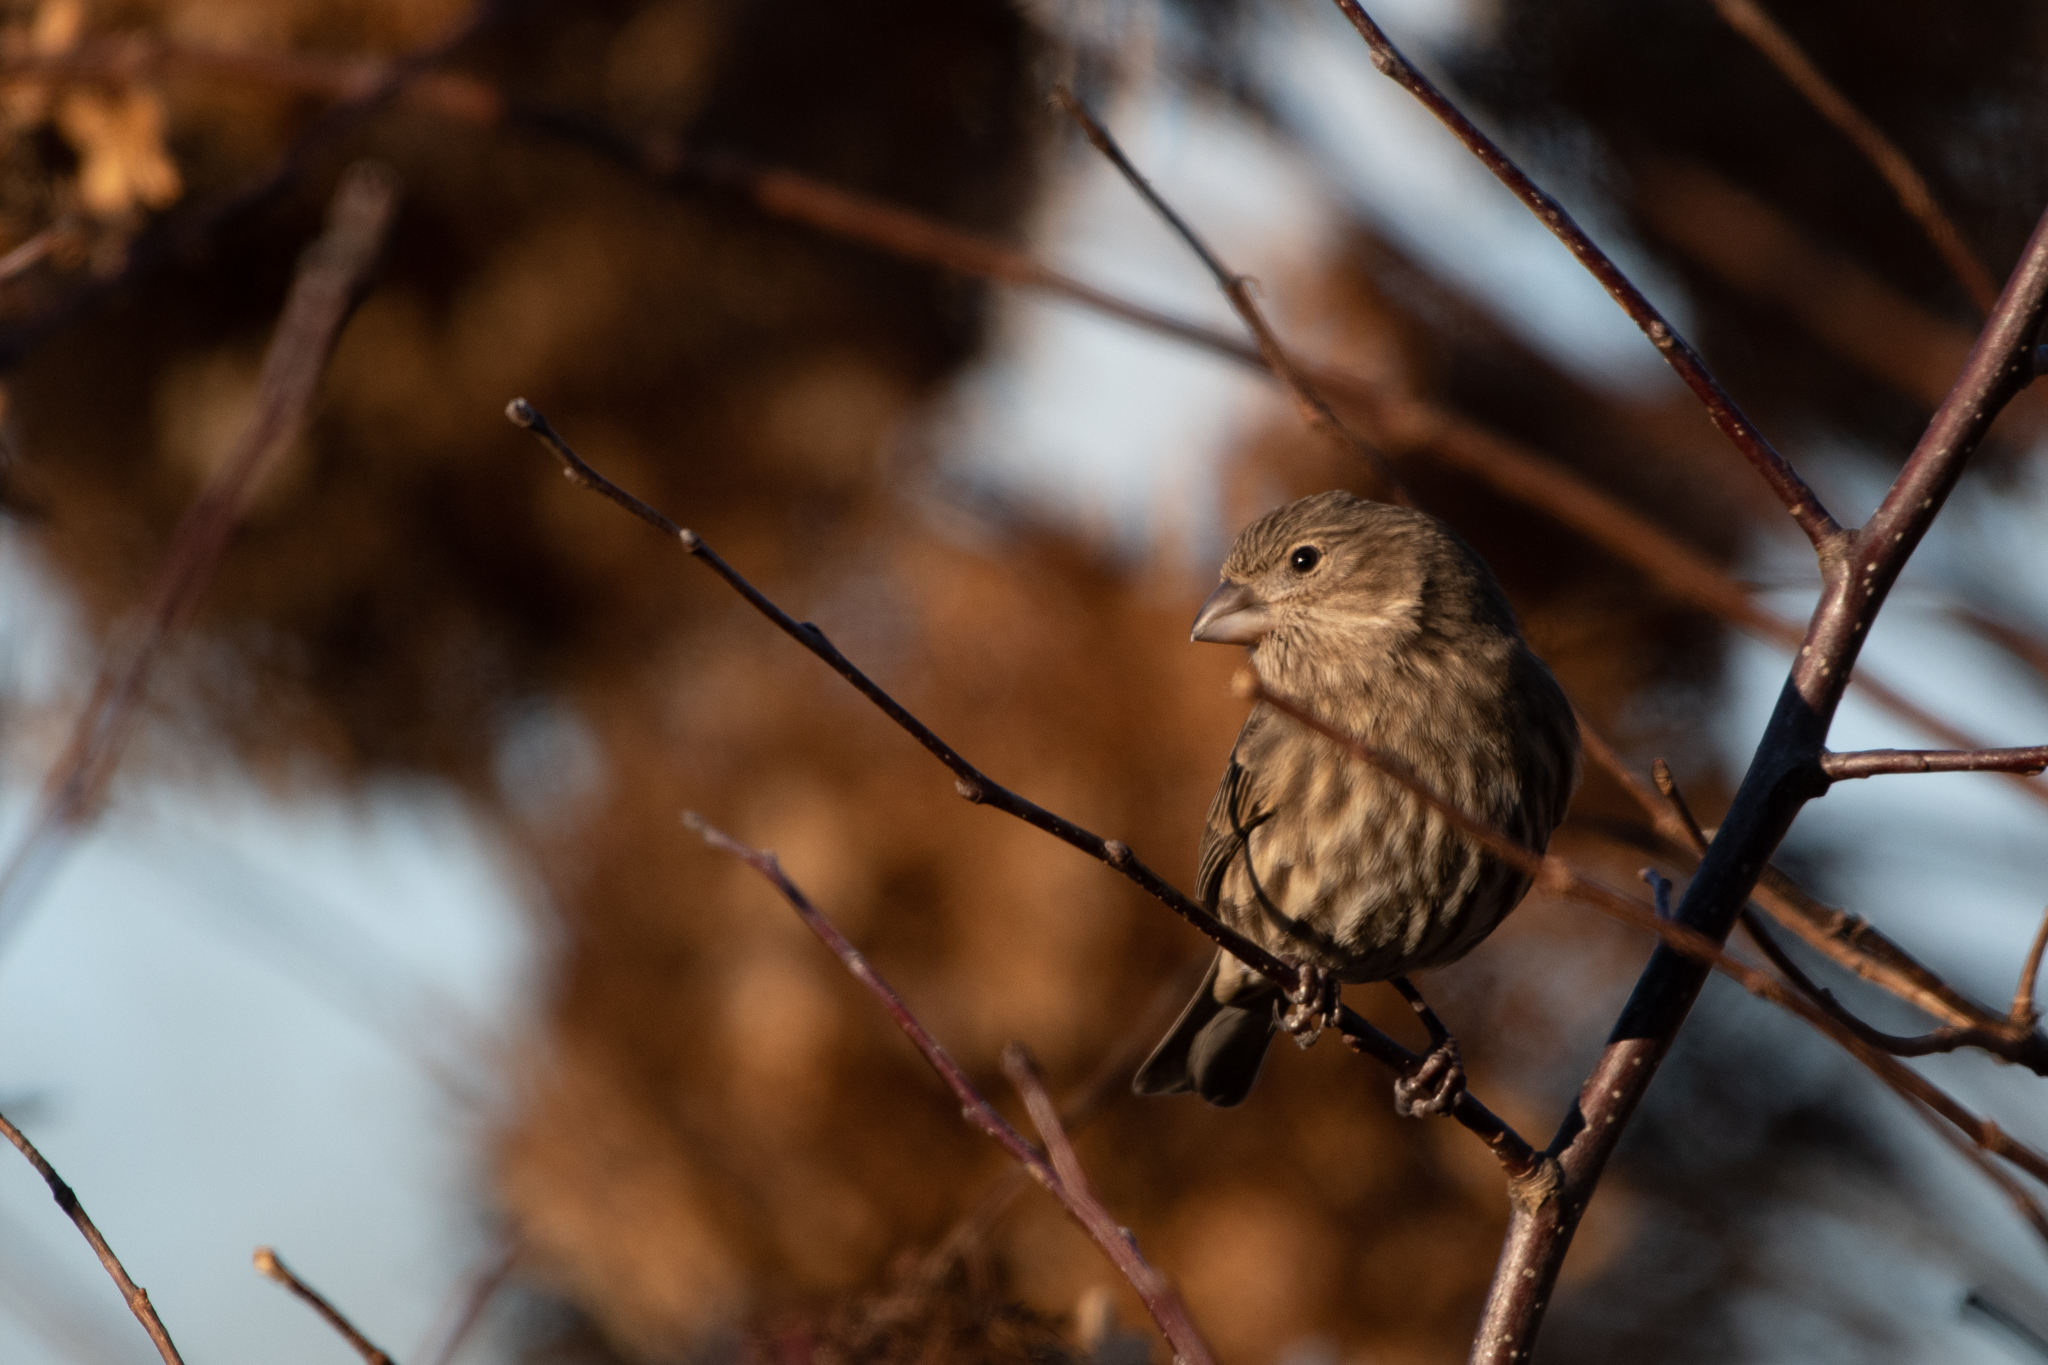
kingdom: Animalia
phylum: Chordata
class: Aves
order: Passeriformes
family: Fringillidae
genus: Haemorhous
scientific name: Haemorhous mexicanus
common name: House finch
